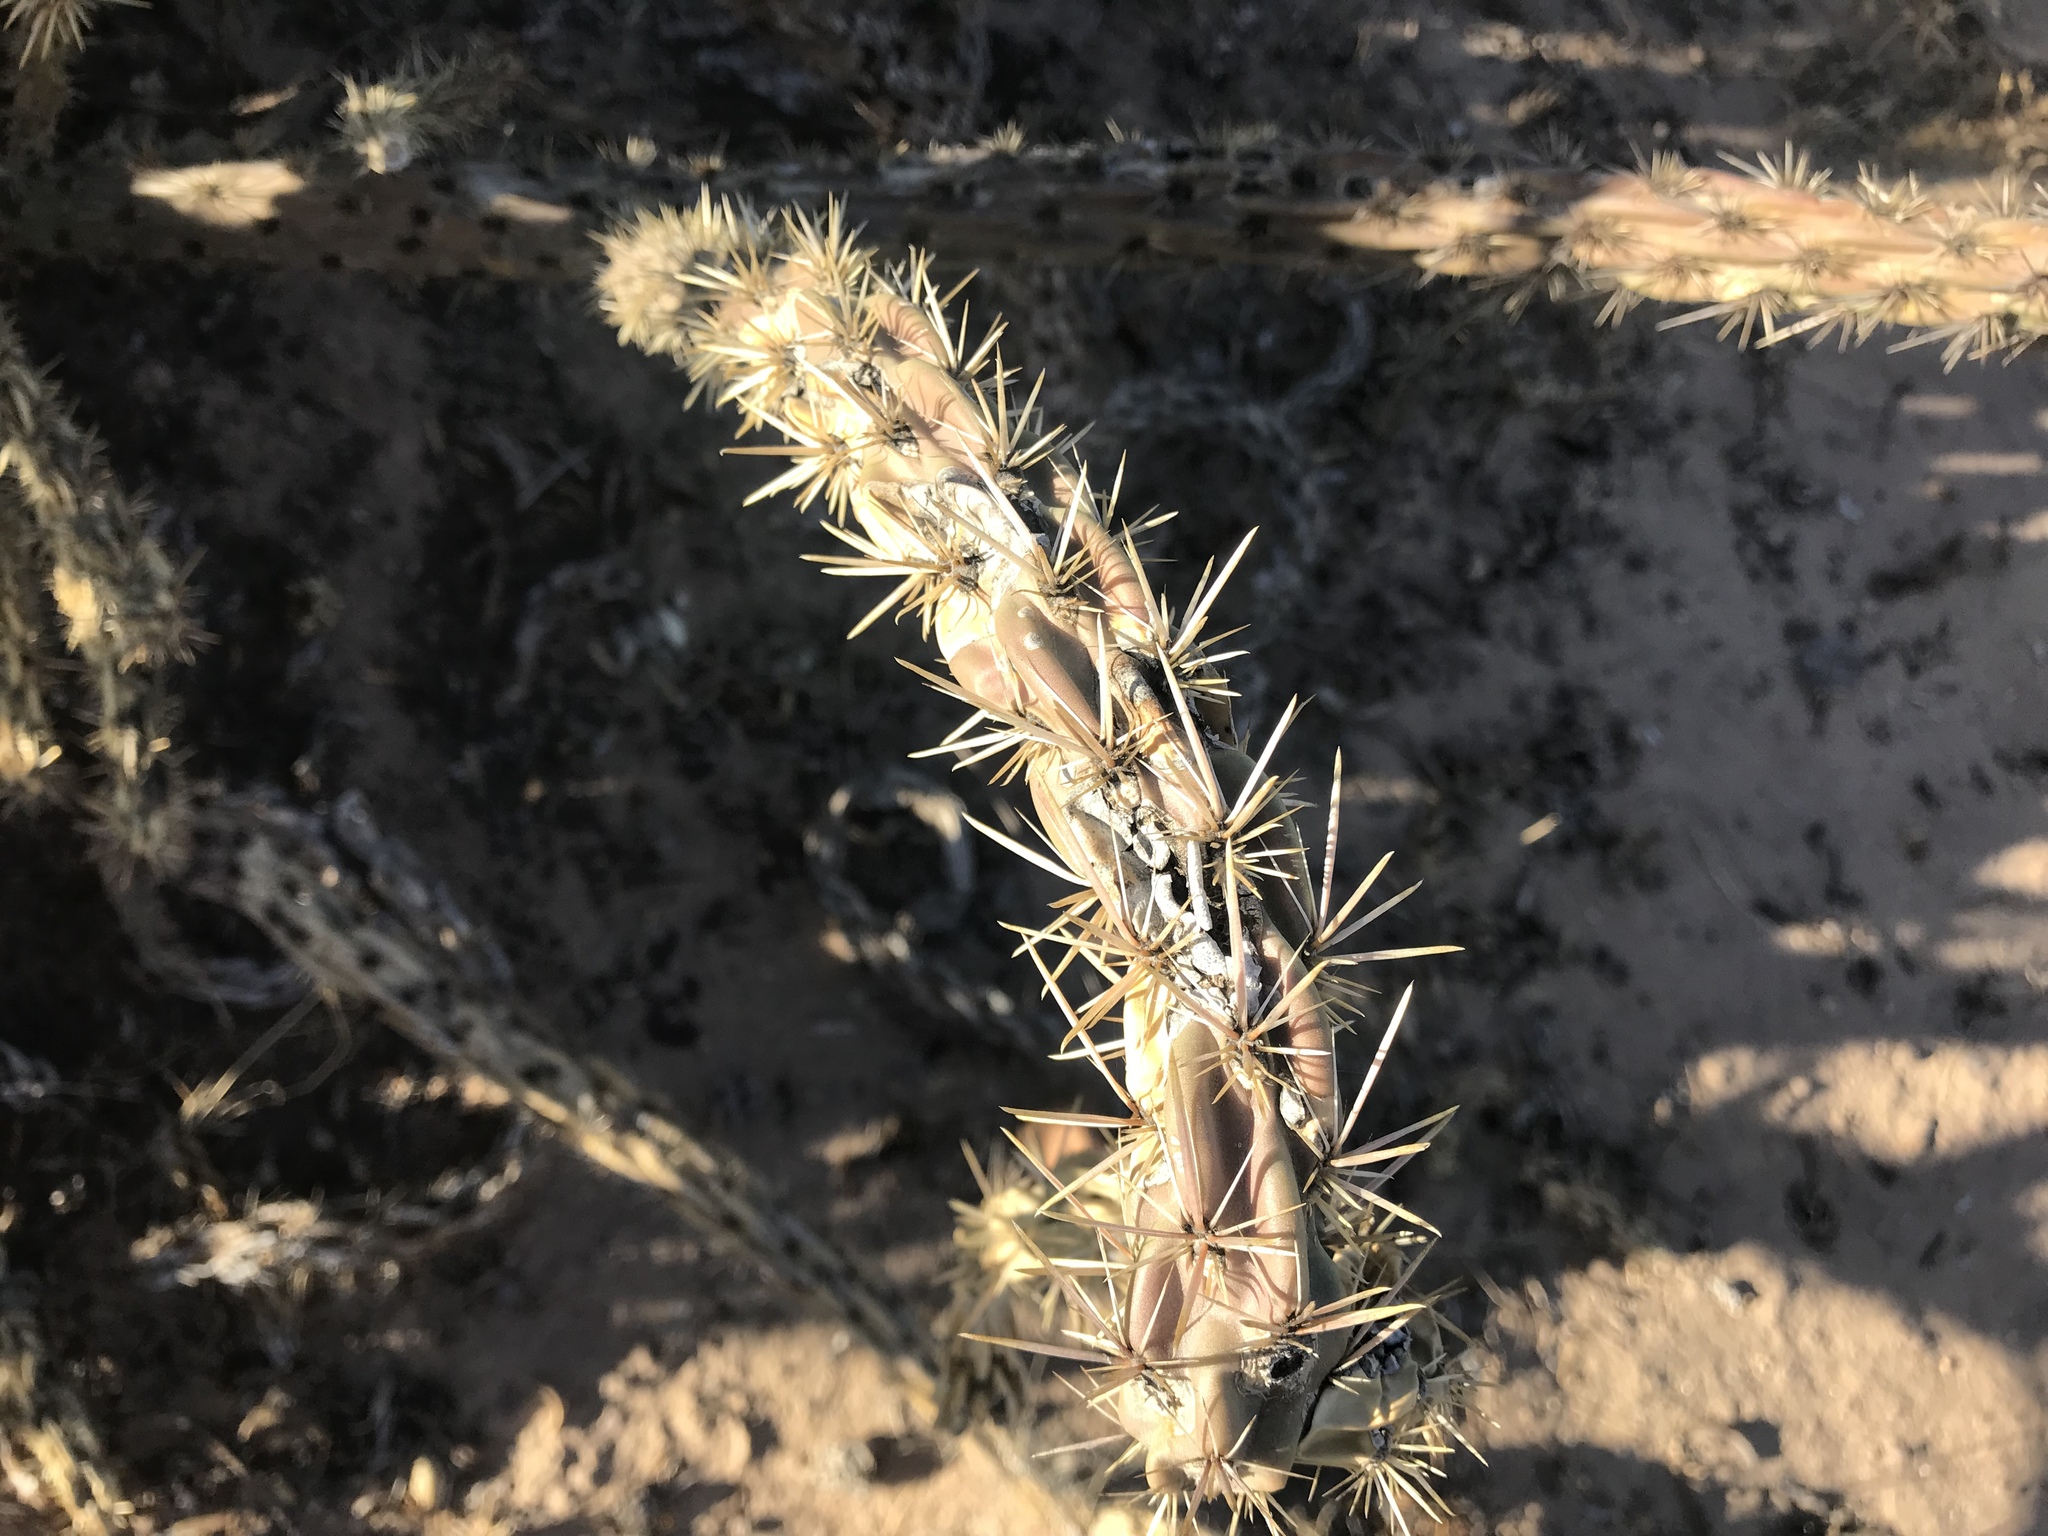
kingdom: Plantae
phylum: Tracheophyta
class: Magnoliopsida
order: Caryophyllales
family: Cactaceae
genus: Cylindropuntia
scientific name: Cylindropuntia imbricata
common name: Candelabrum cactus
